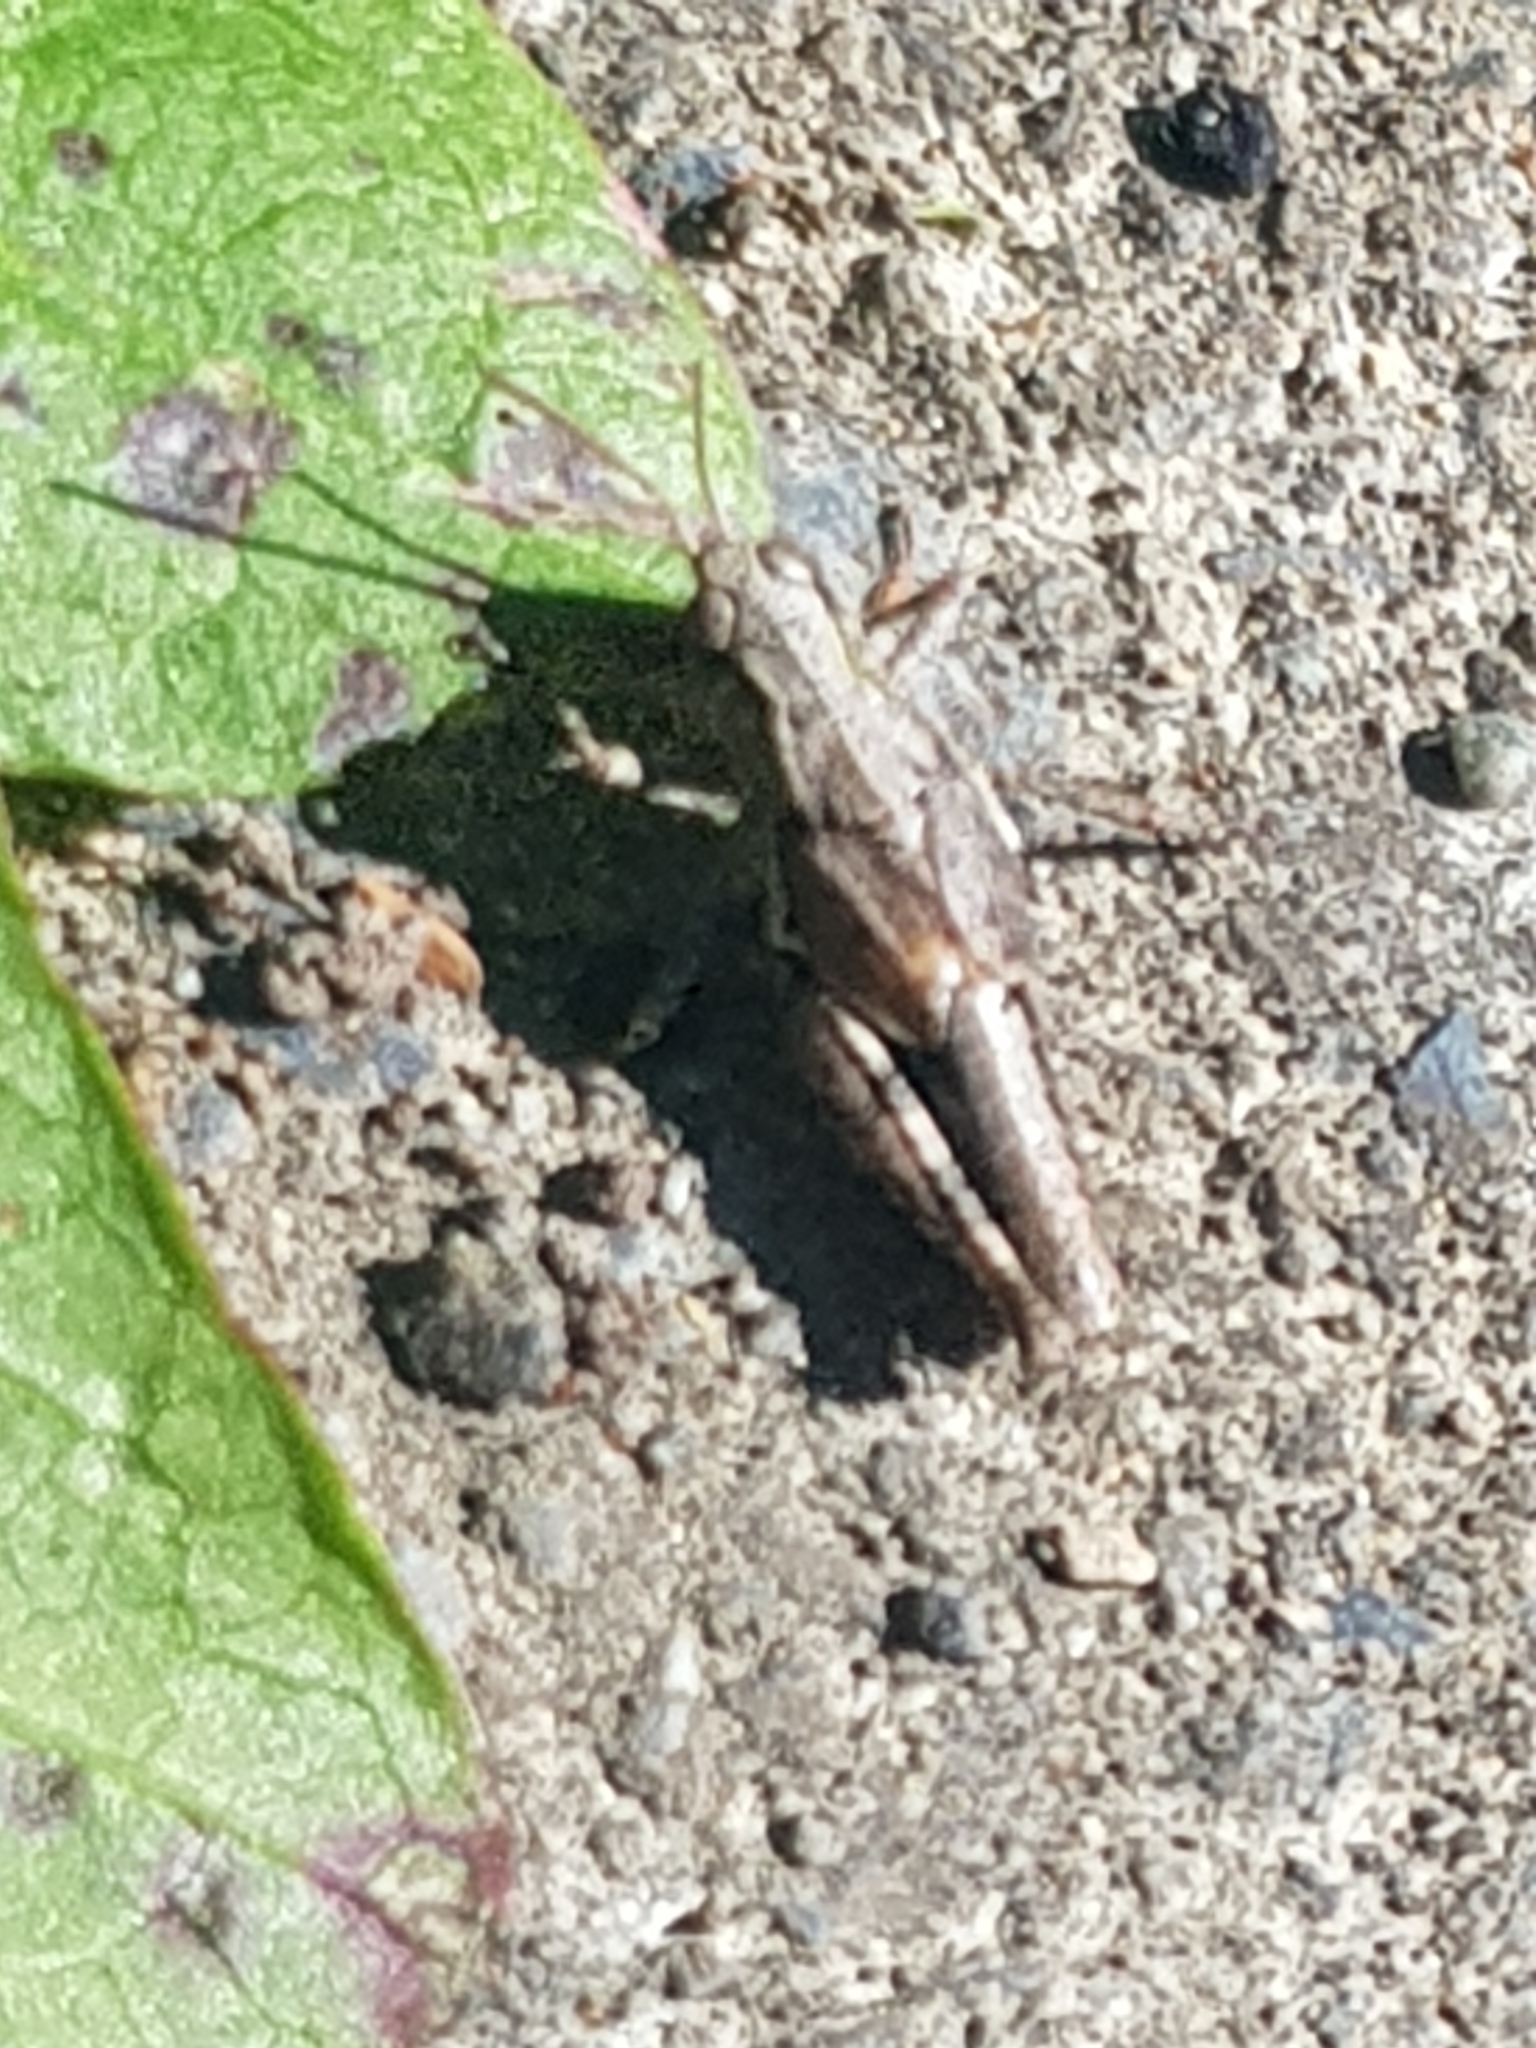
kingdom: Animalia
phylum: Arthropoda
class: Insecta
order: Orthoptera
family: Acrididae
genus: Phaulacridium
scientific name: Phaulacridium marginale
